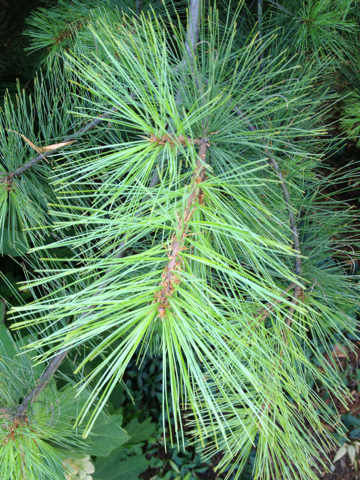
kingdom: Plantae
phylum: Tracheophyta
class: Pinopsida
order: Pinales
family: Pinaceae
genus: Pinus
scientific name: Pinus strobus
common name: Weymouth pine
